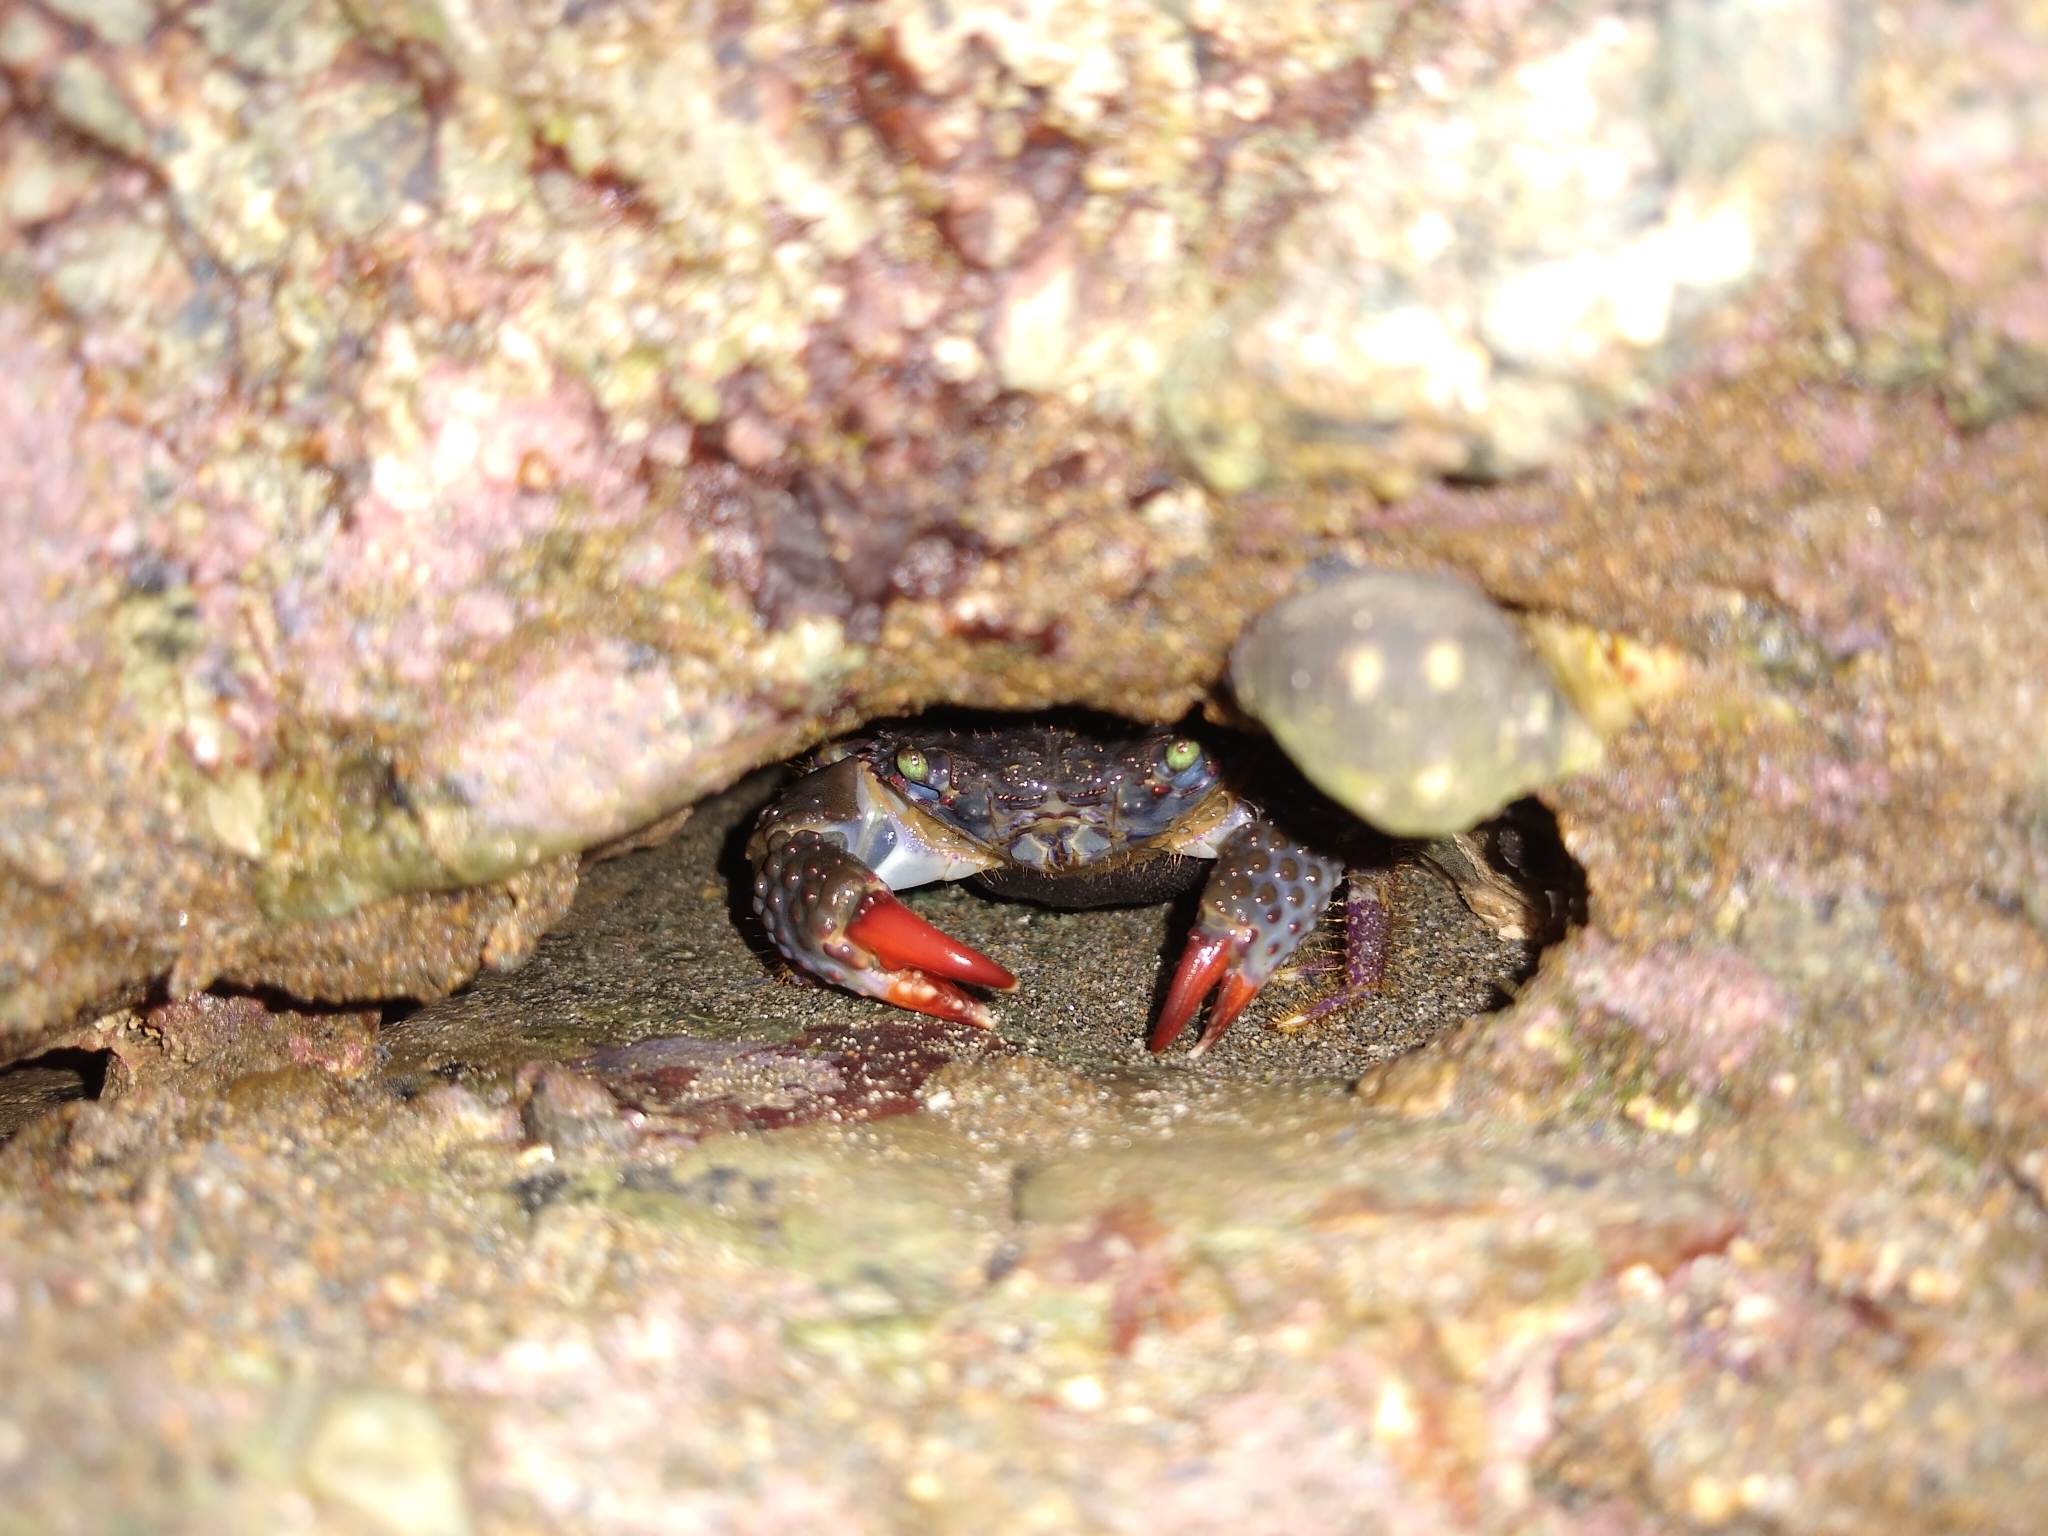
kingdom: Animalia
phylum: Arthropoda
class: Malacostraca
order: Decapoda
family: Eriphiidae
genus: Eriphia
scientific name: Eriphia squamata
